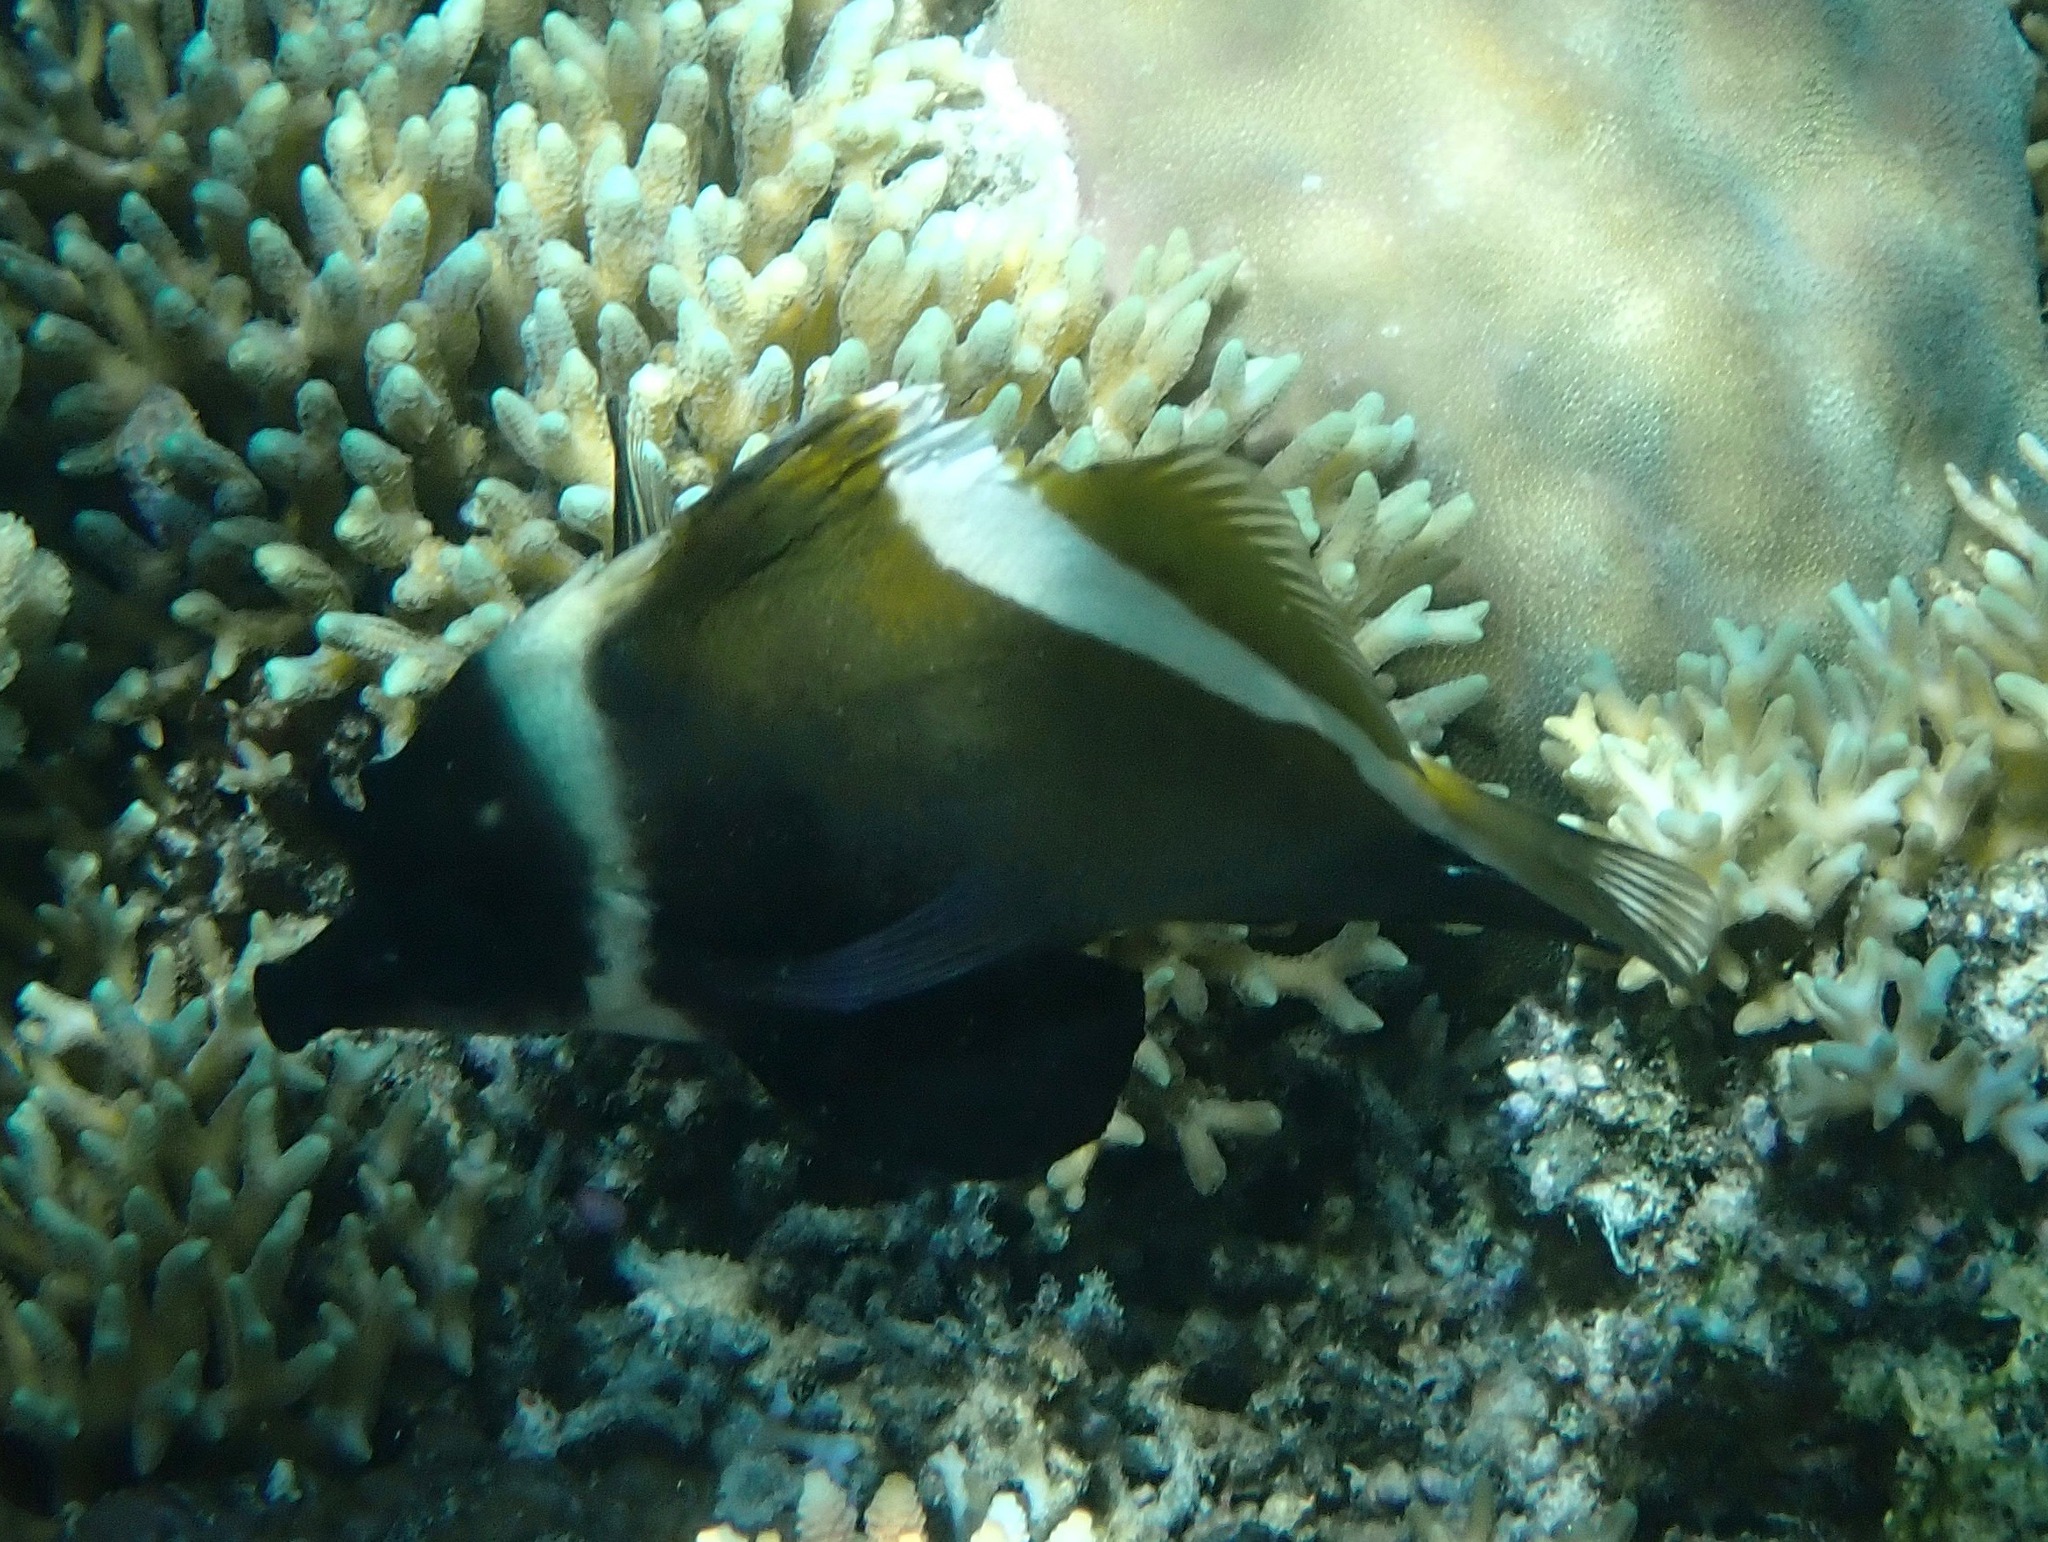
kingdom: Animalia
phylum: Chordata
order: Perciformes
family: Chaetodontidae
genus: Heniochus
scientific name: Heniochus varius
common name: Horned bannerfish
